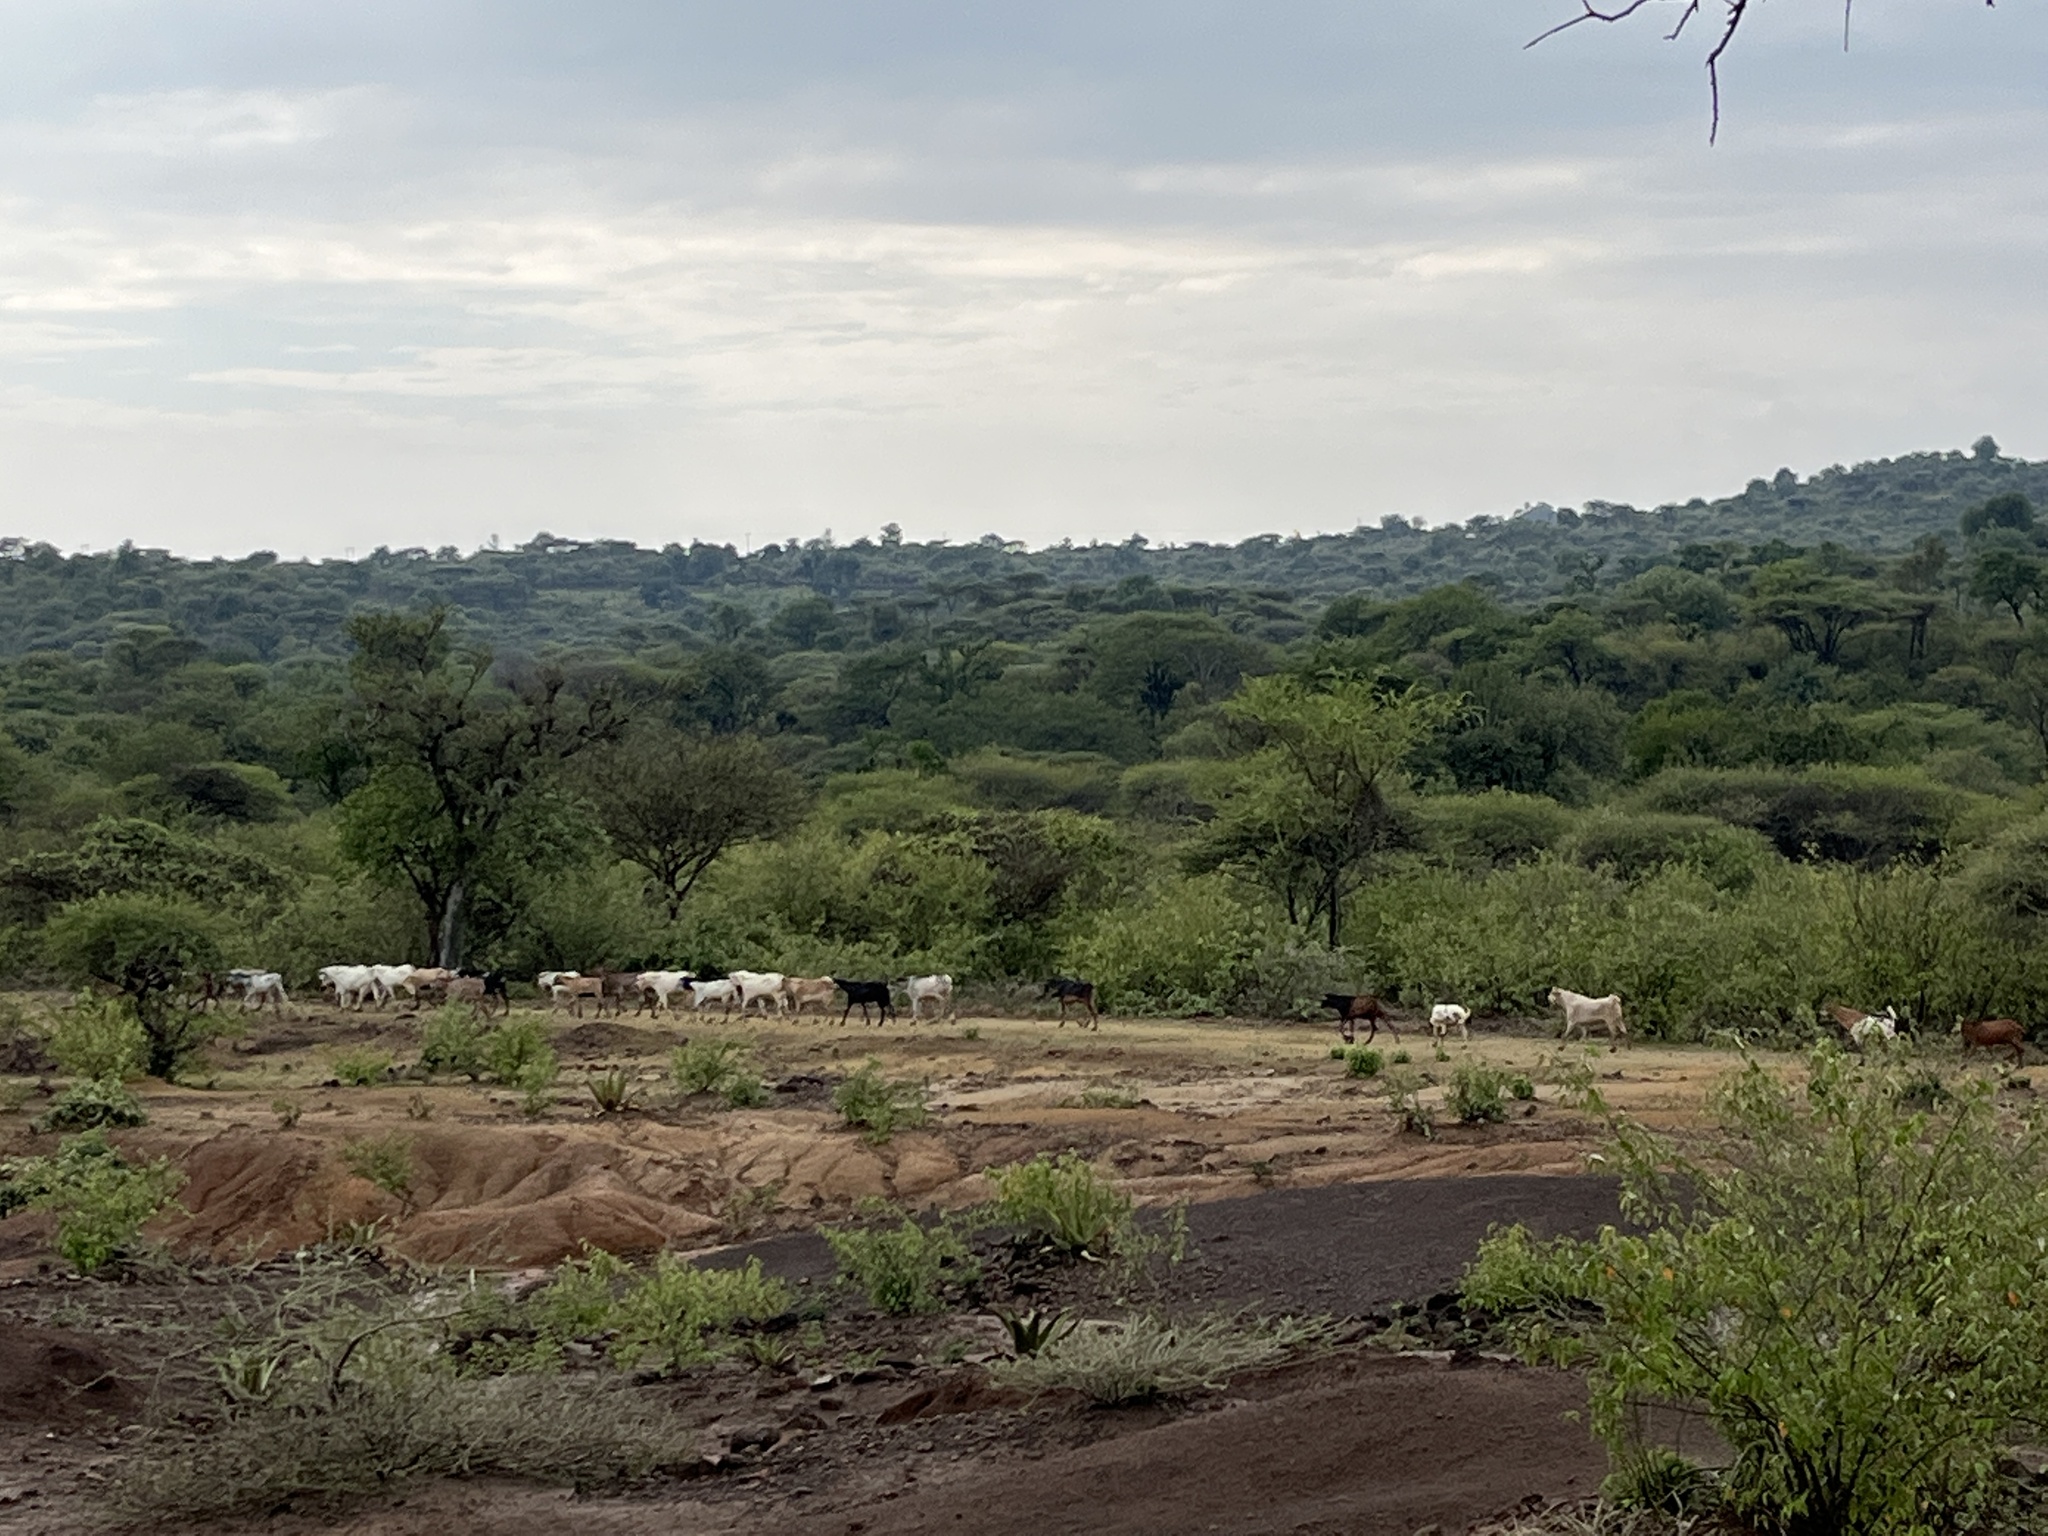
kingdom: Animalia
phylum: Chordata
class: Mammalia
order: Artiodactyla
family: Bovidae
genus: Capra
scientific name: Capra hircus
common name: Domestic goat
